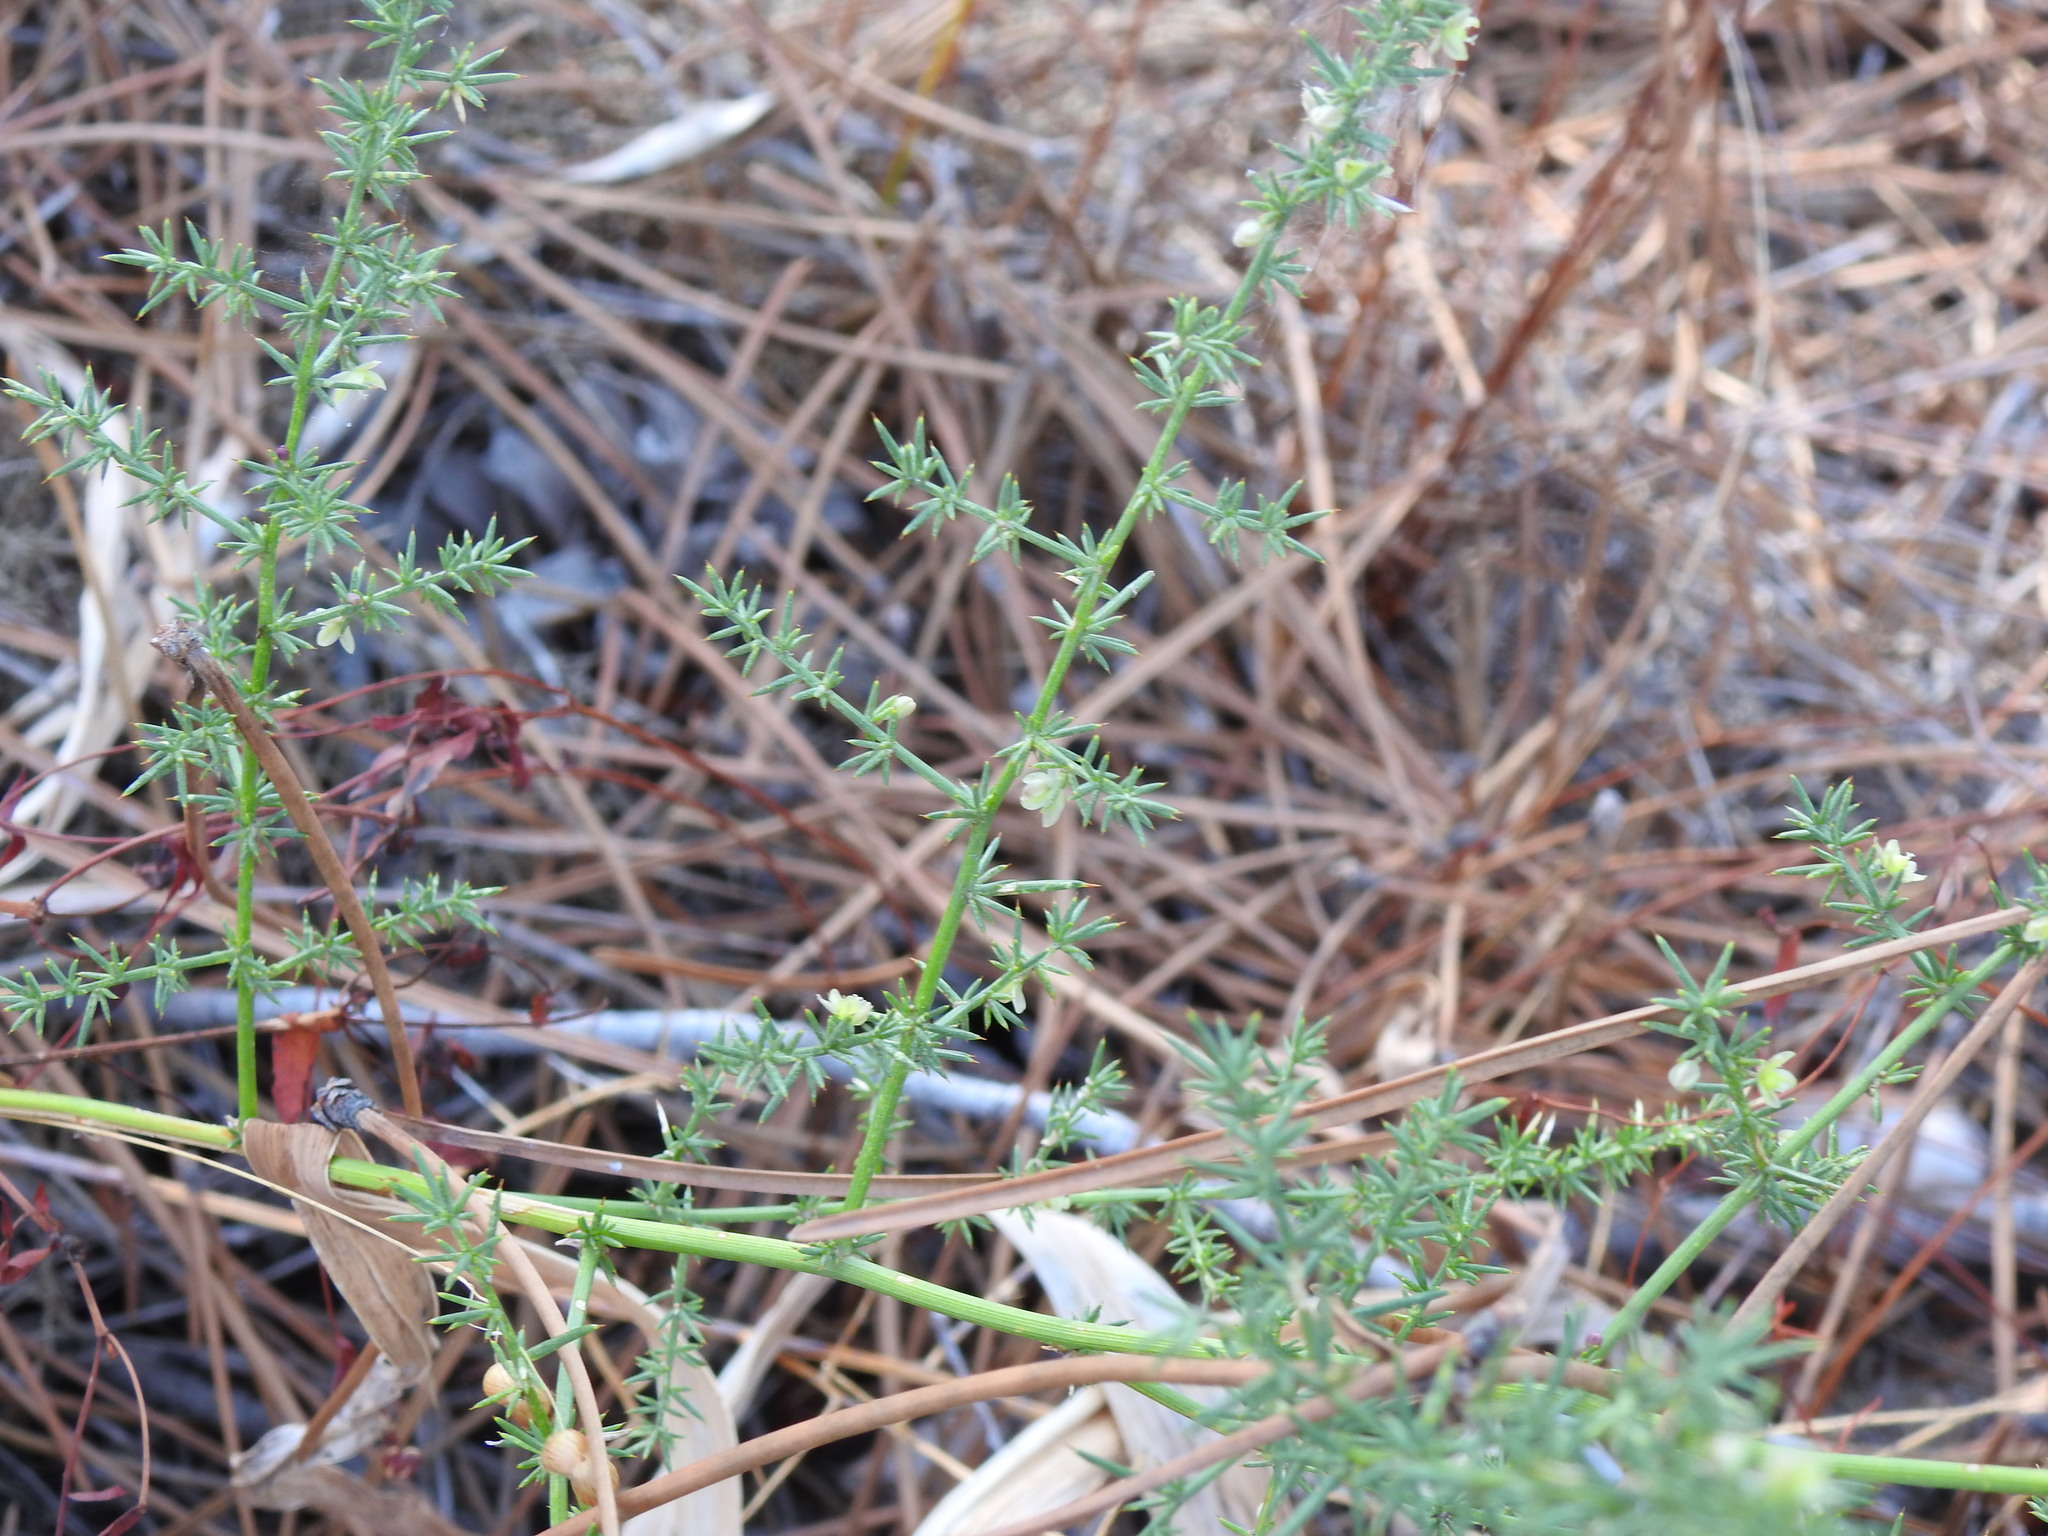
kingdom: Plantae
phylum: Tracheophyta
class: Liliopsida
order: Asparagales
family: Asparagaceae
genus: Asparagus
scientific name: Asparagus acutifolius
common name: Wild asparagus
